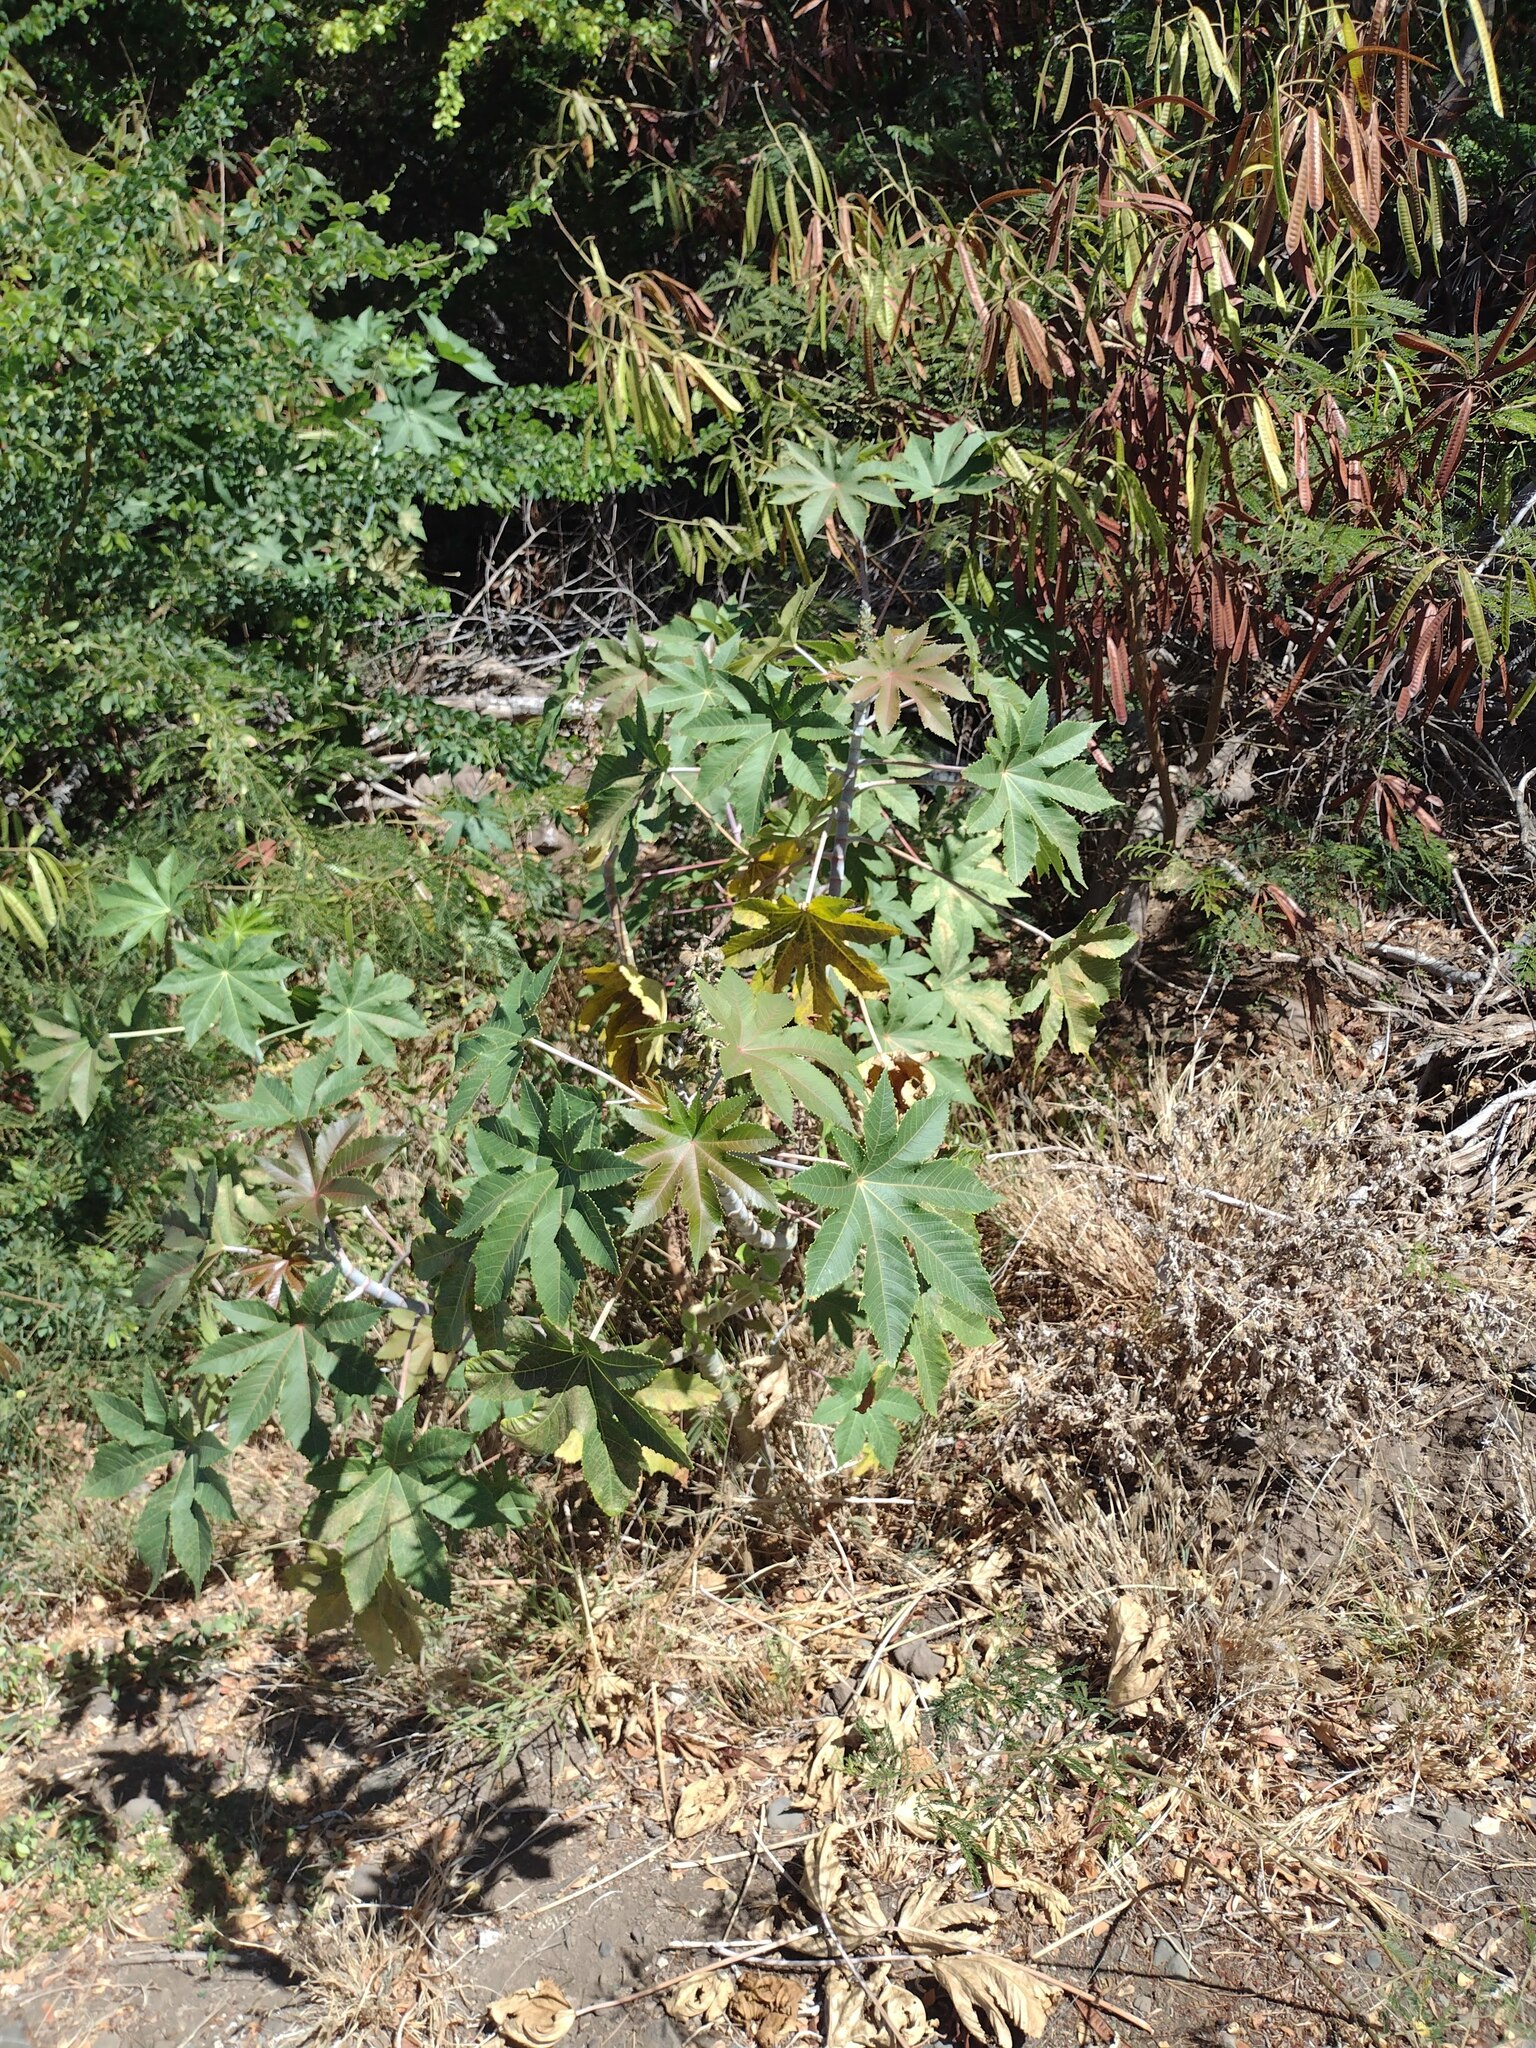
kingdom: Plantae
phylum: Tracheophyta
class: Magnoliopsida
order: Malpighiales
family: Euphorbiaceae
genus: Ricinus
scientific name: Ricinus communis
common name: Castor-oil-plant
